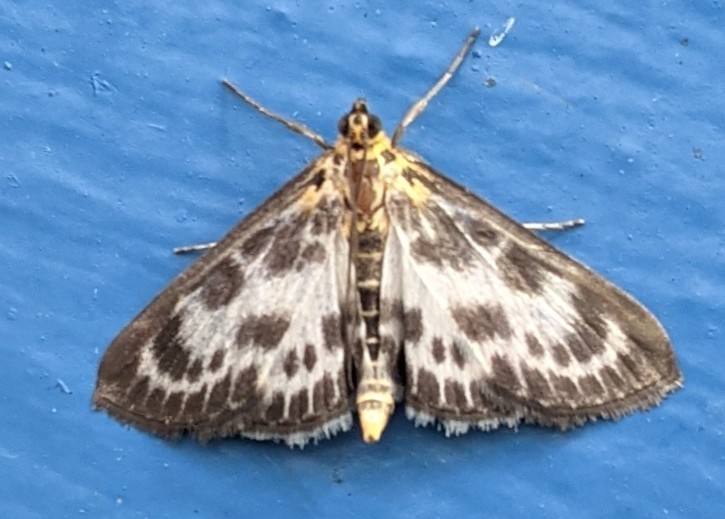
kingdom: Animalia
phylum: Arthropoda
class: Insecta
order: Lepidoptera
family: Crambidae
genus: Anania
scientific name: Anania hortulata
